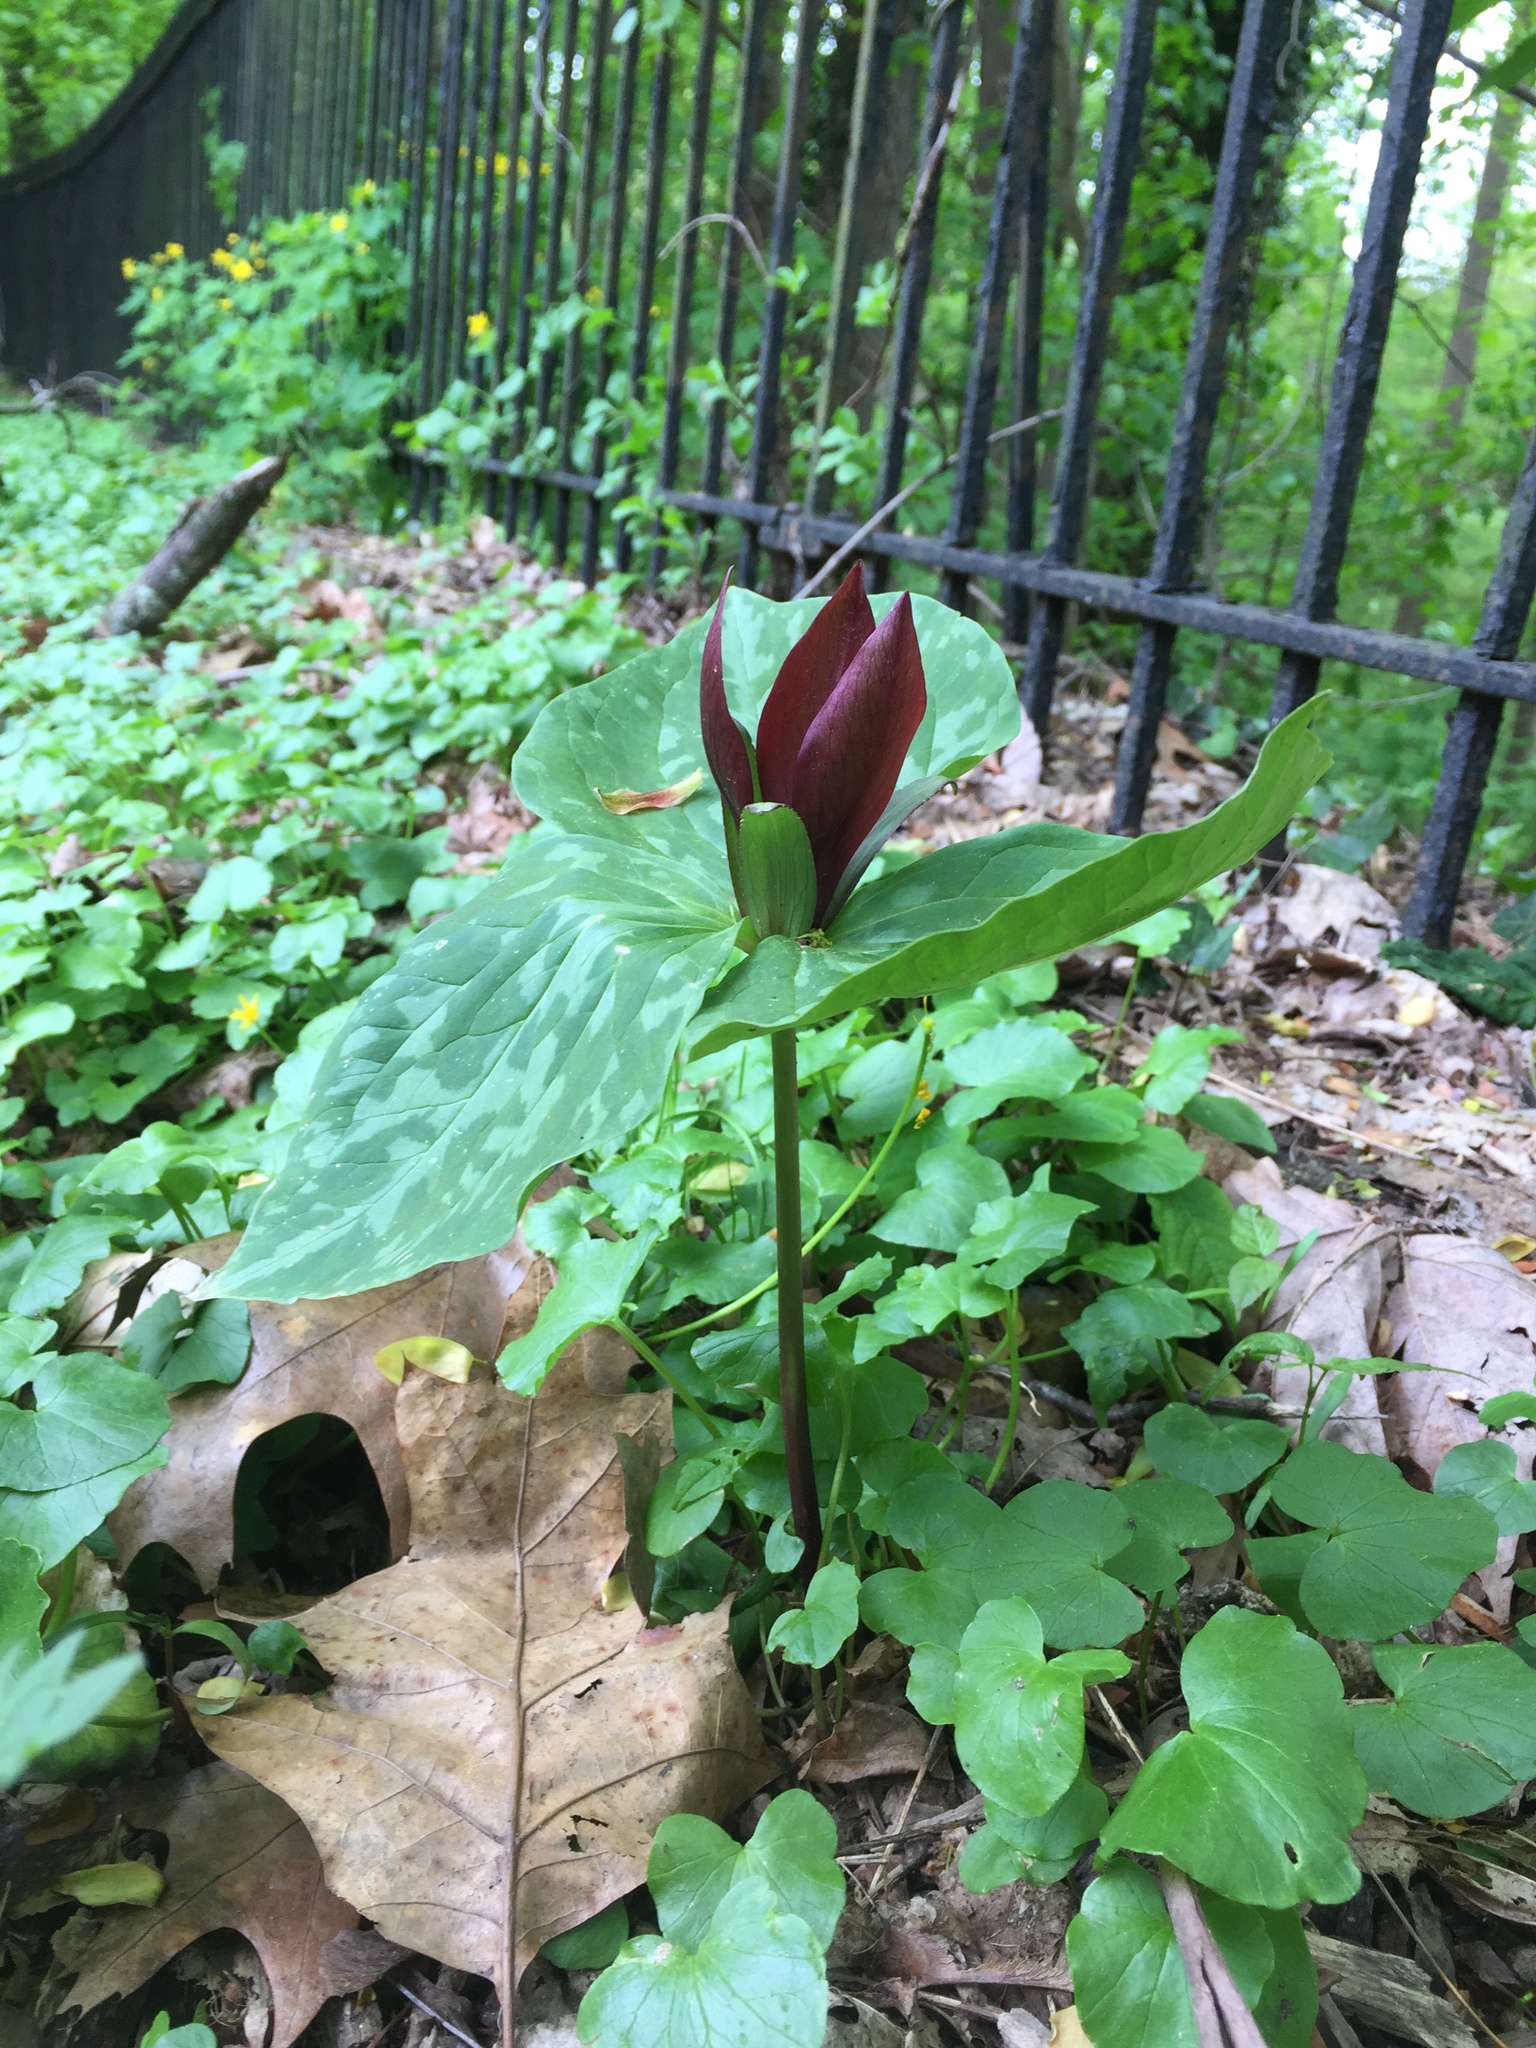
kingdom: Plantae
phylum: Tracheophyta
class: Liliopsida
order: Liliales
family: Melanthiaceae
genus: Trillium
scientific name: Trillium cuneatum
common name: Cuneate trillium
